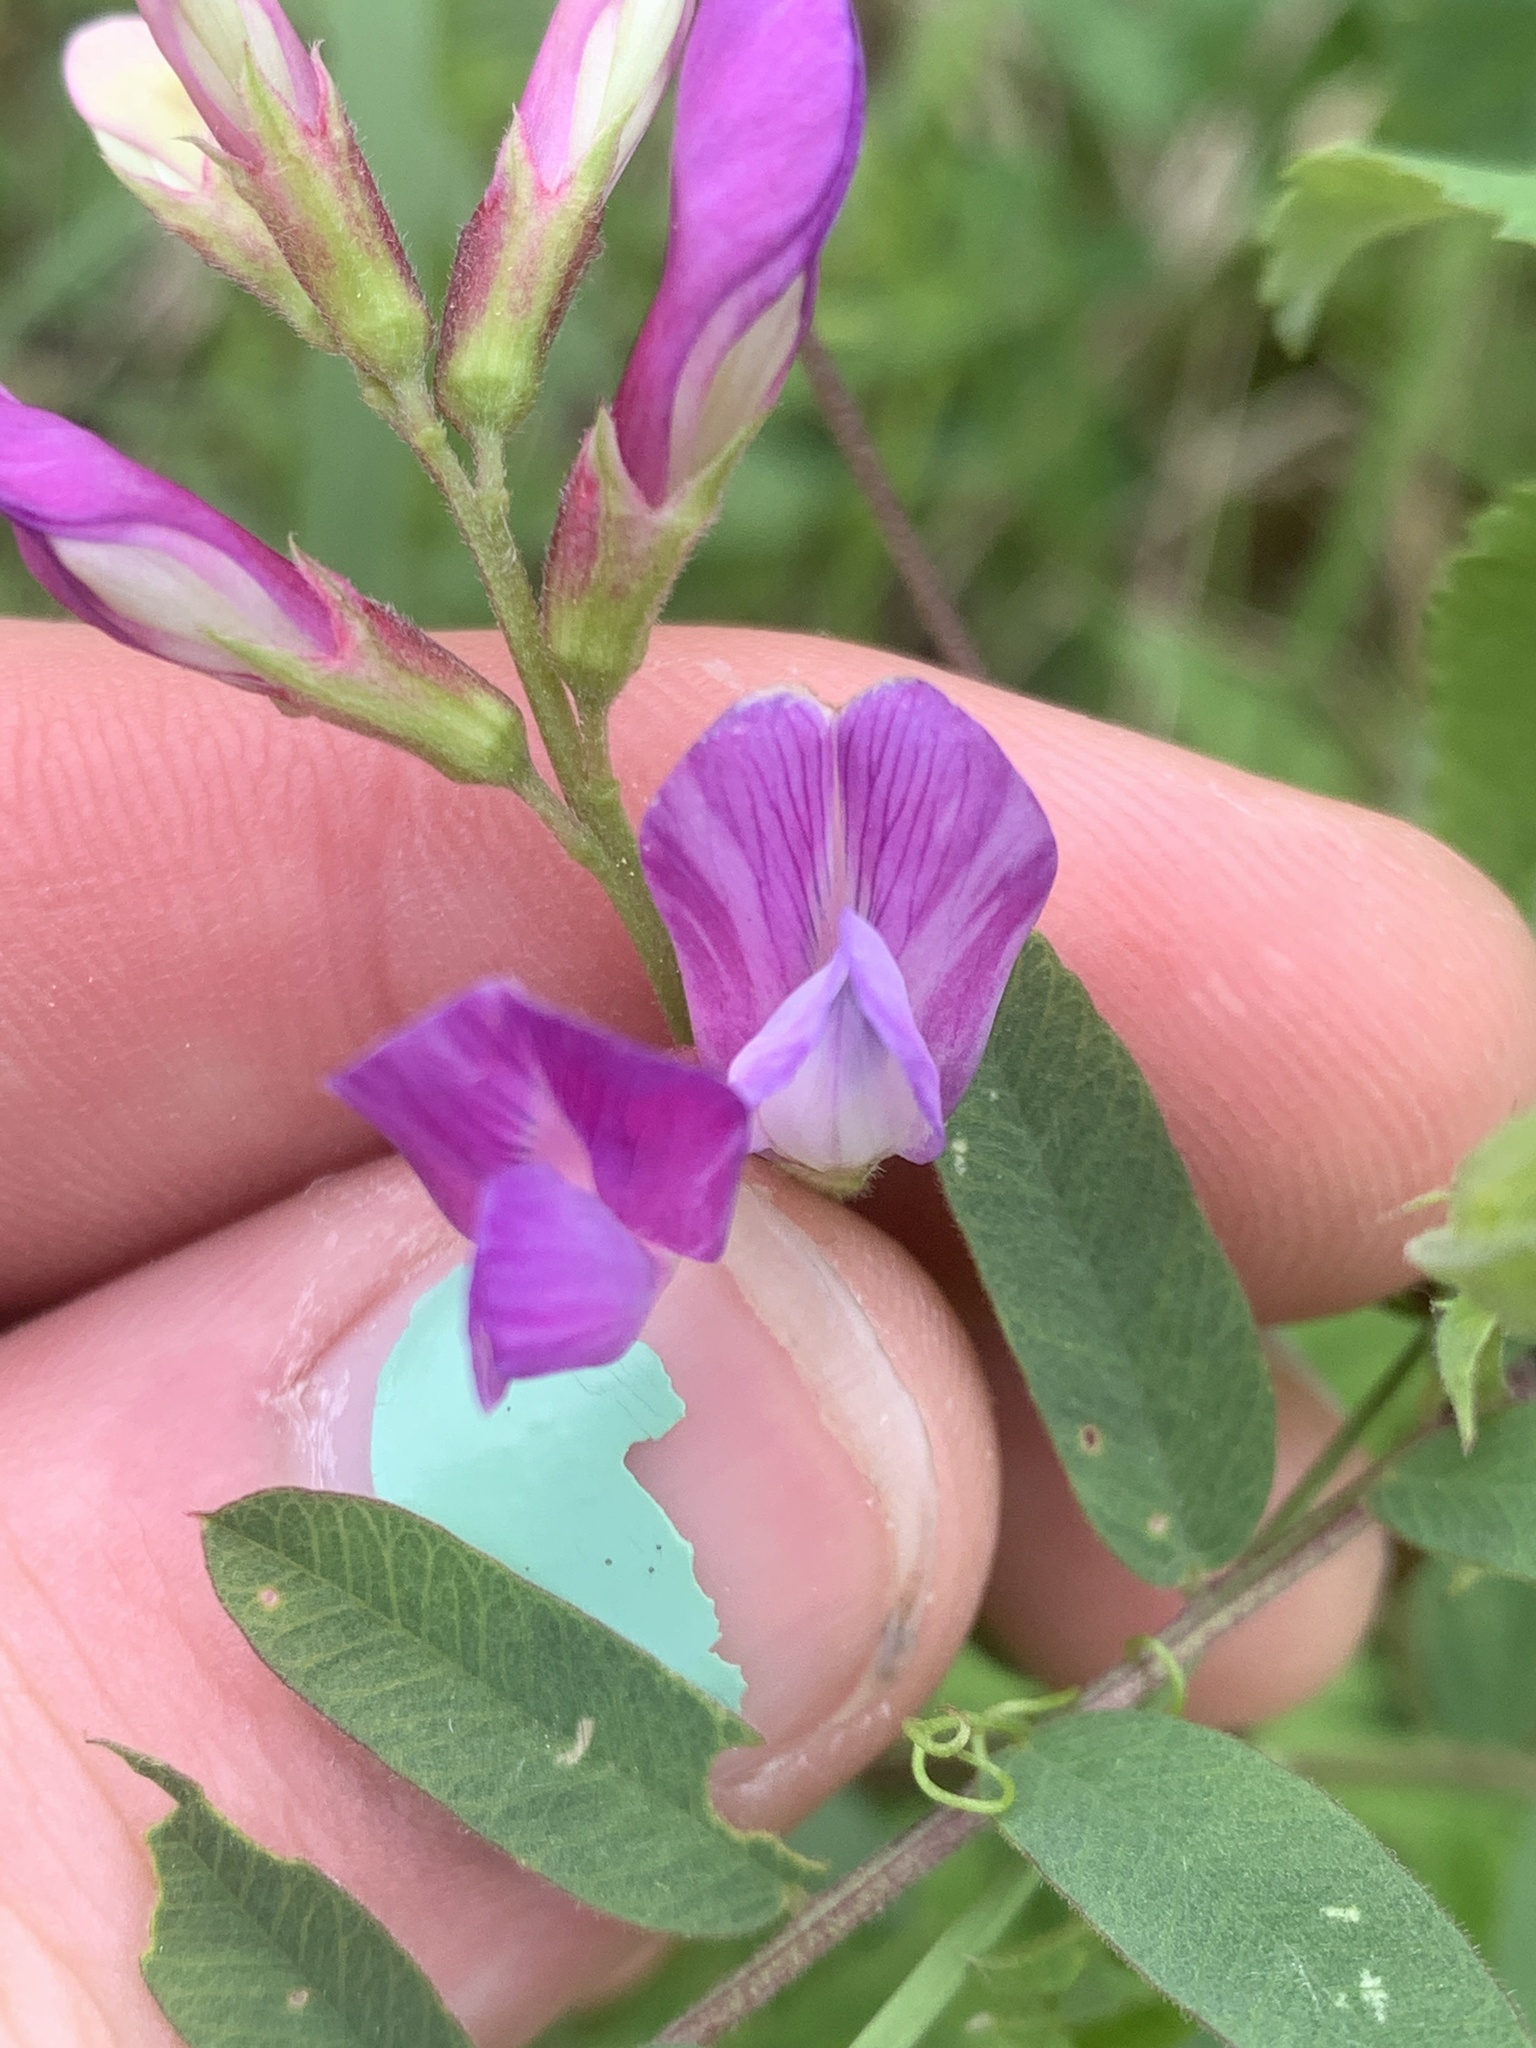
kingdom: Plantae
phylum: Tracheophyta
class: Magnoliopsida
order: Fabales
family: Fabaceae
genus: Vicia
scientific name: Vicia americana
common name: American vetch
